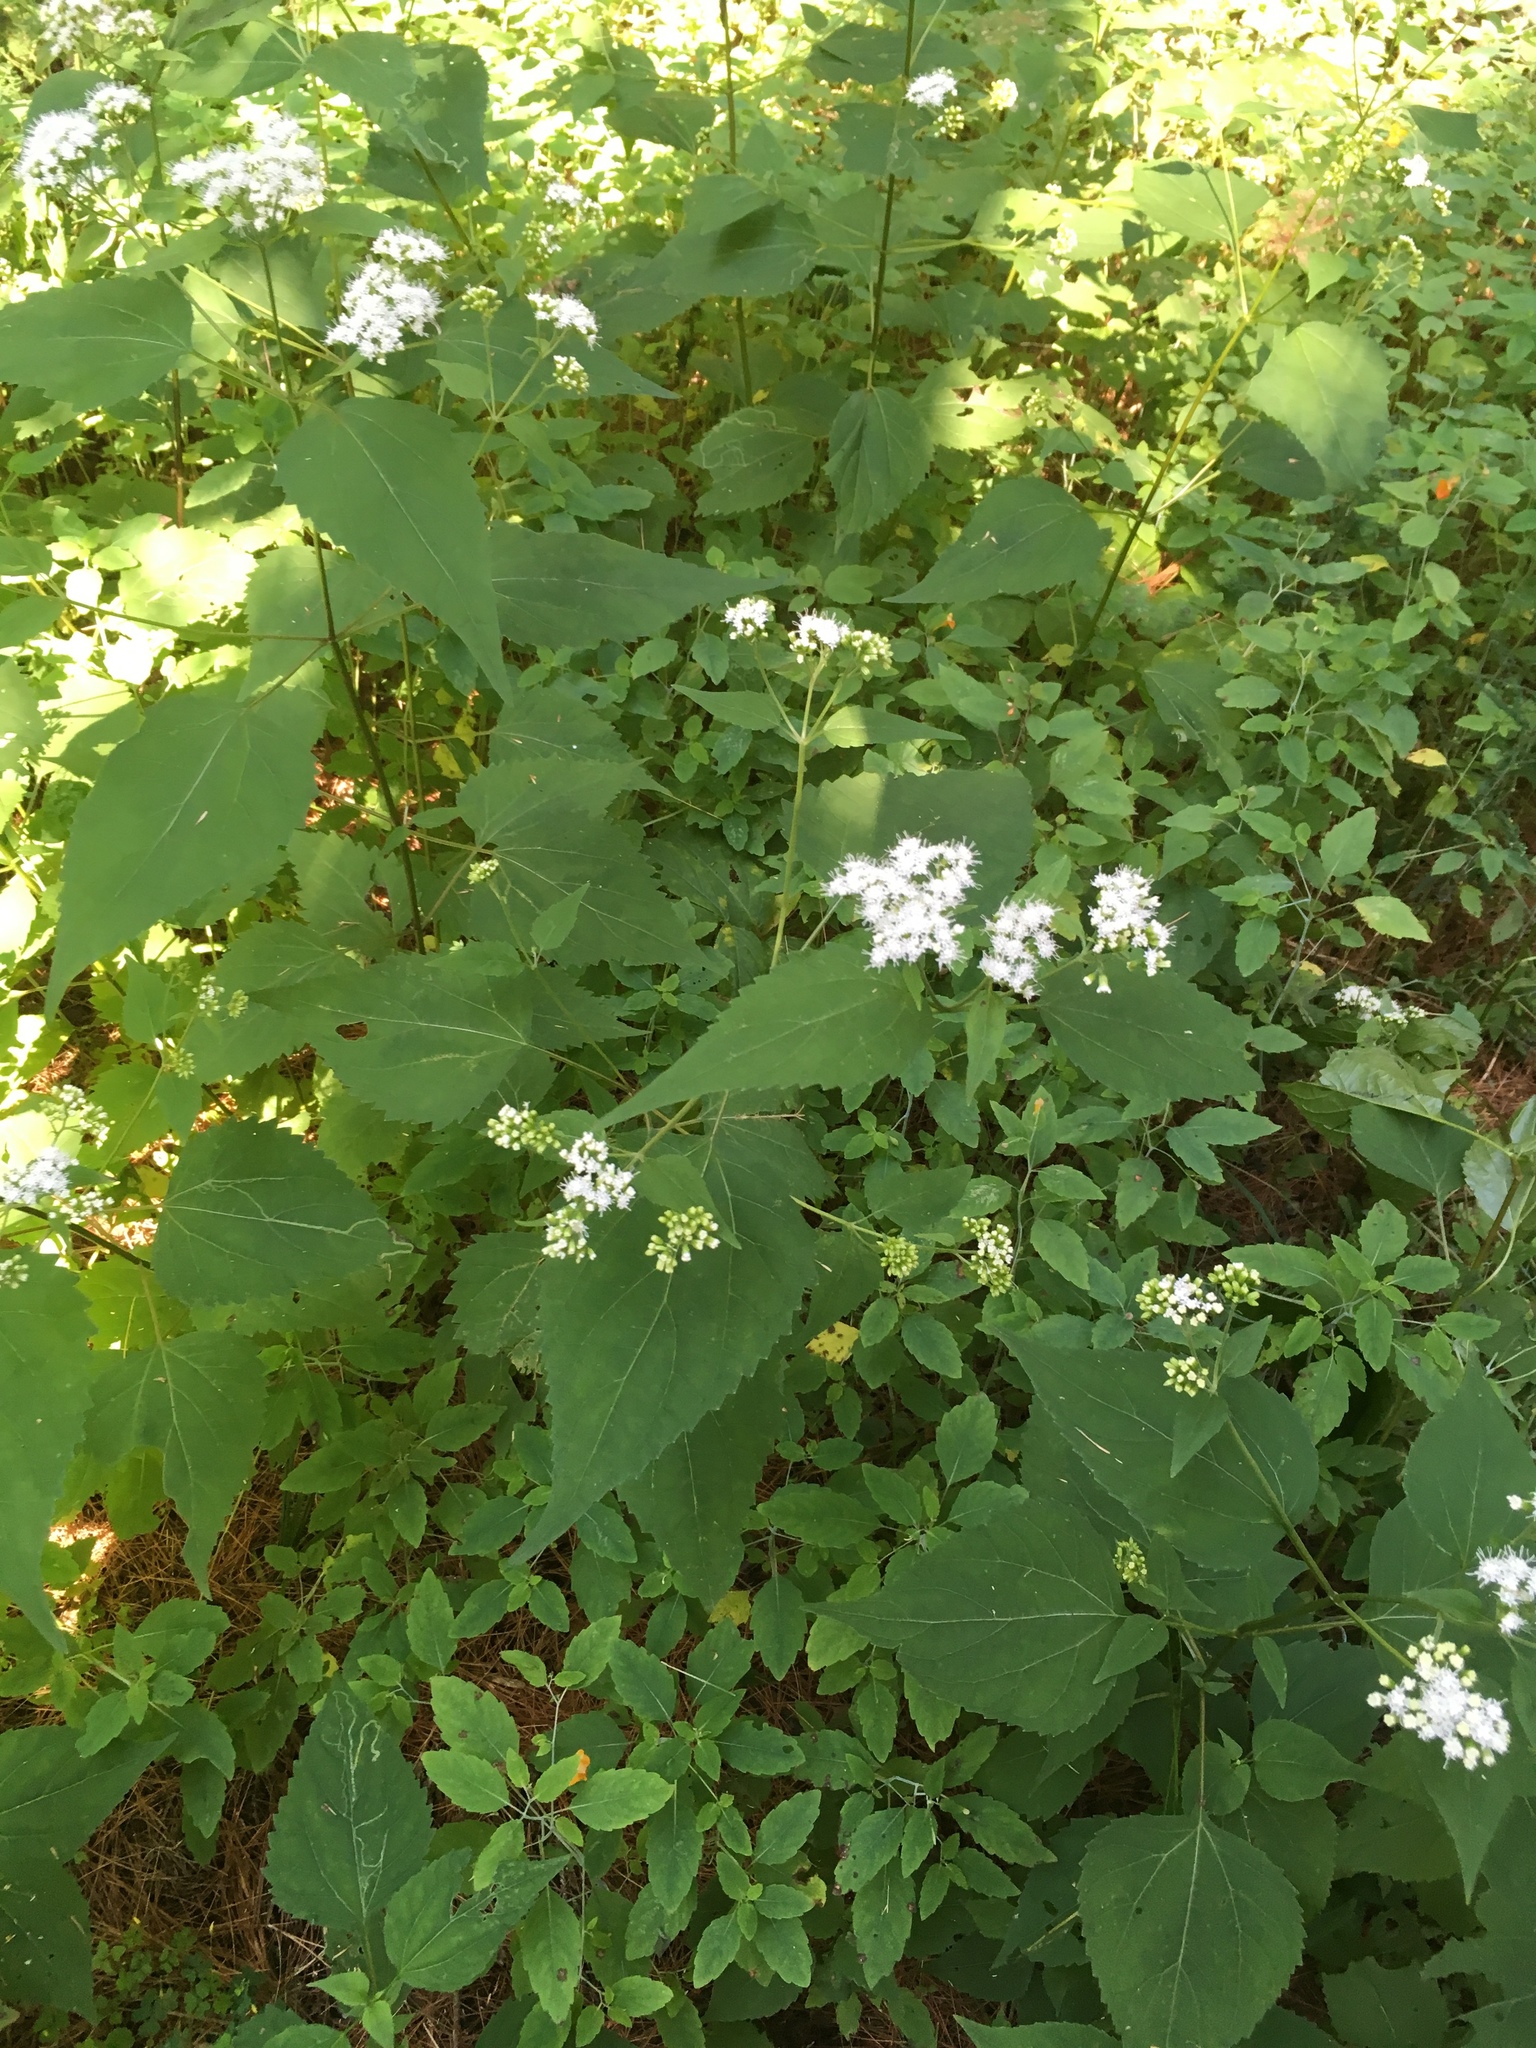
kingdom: Plantae
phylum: Tracheophyta
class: Magnoliopsida
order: Asterales
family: Asteraceae
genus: Ageratina
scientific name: Ageratina altissima
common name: White snakeroot
